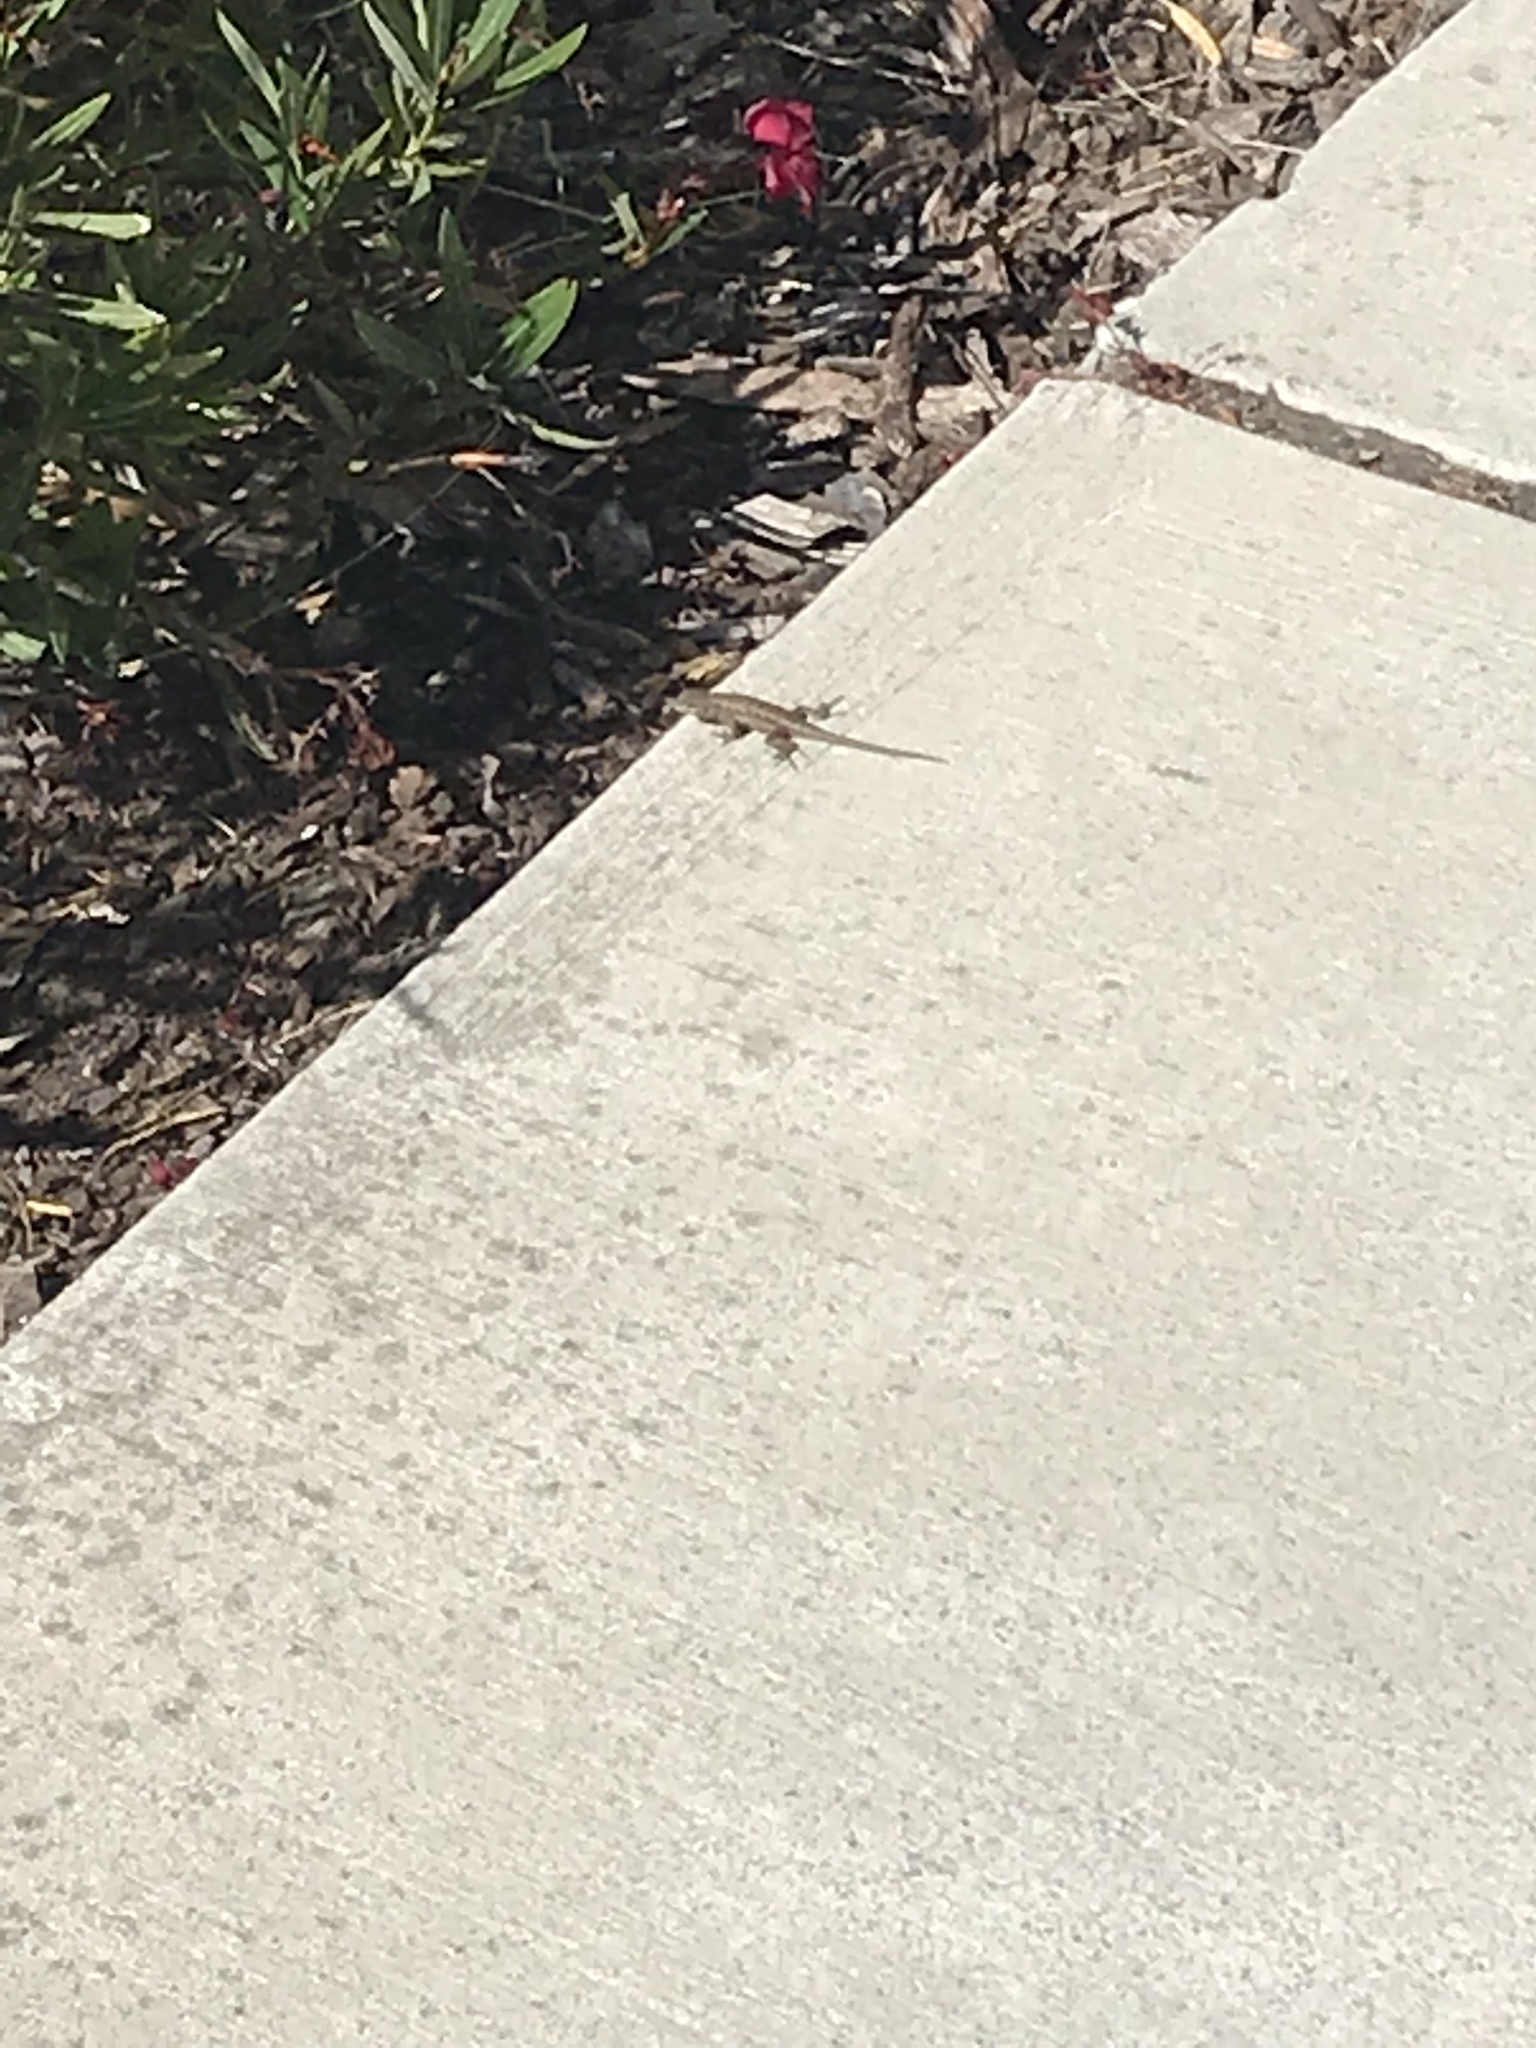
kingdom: Animalia
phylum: Chordata
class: Squamata
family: Phrynosomatidae
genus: Sceloporus
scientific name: Sceloporus occidentalis
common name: Western fence lizard
